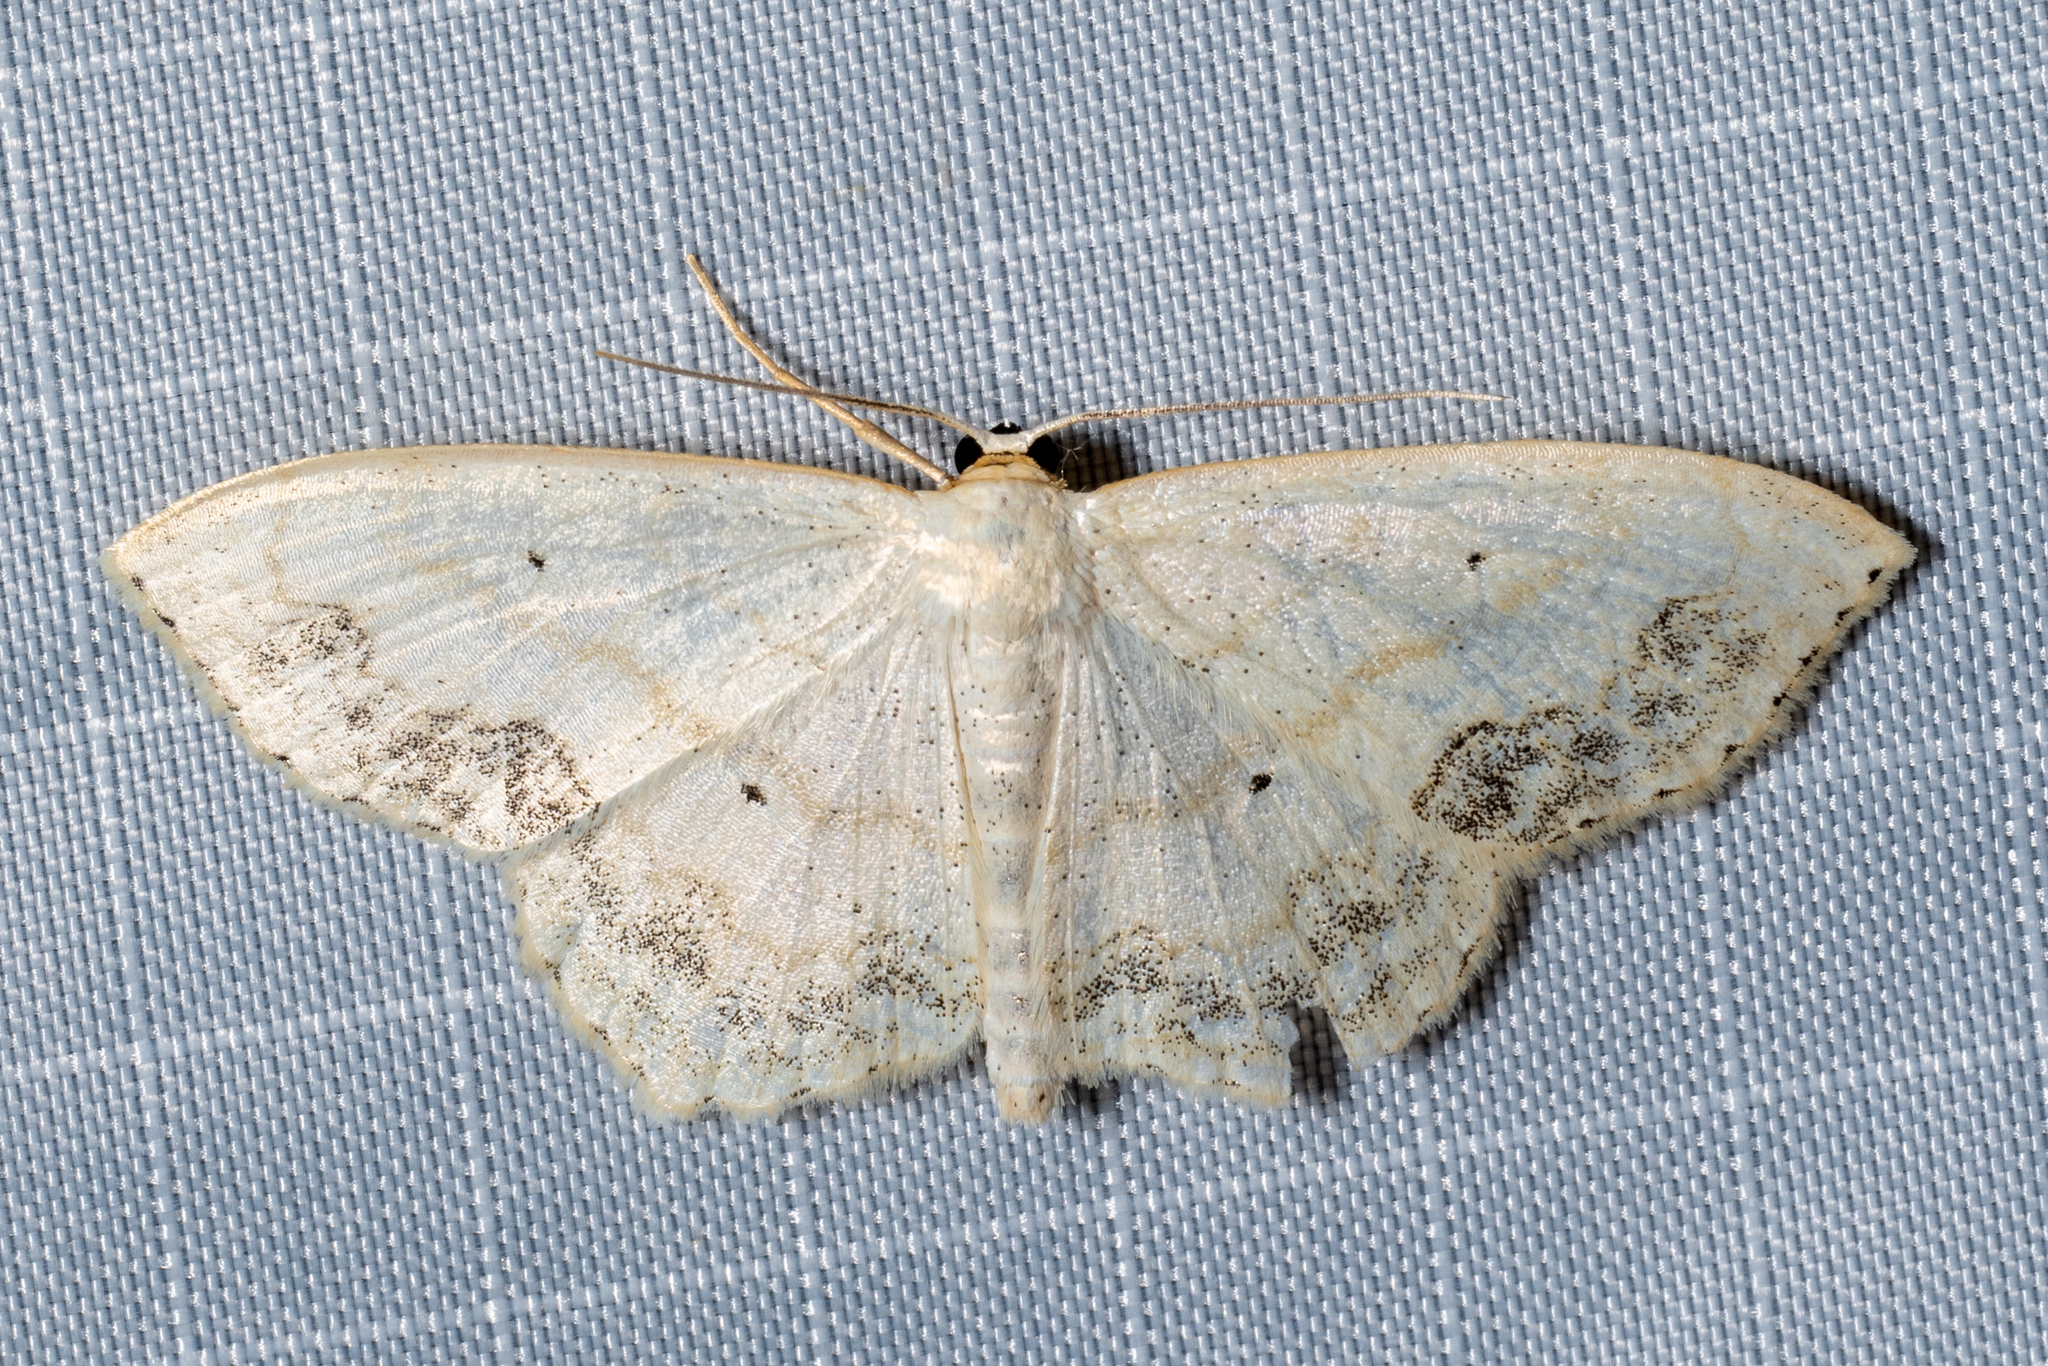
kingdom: Animalia
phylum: Arthropoda
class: Insecta
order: Lepidoptera
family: Geometridae
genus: Scopula
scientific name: Scopula limboundata
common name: Large lace border
